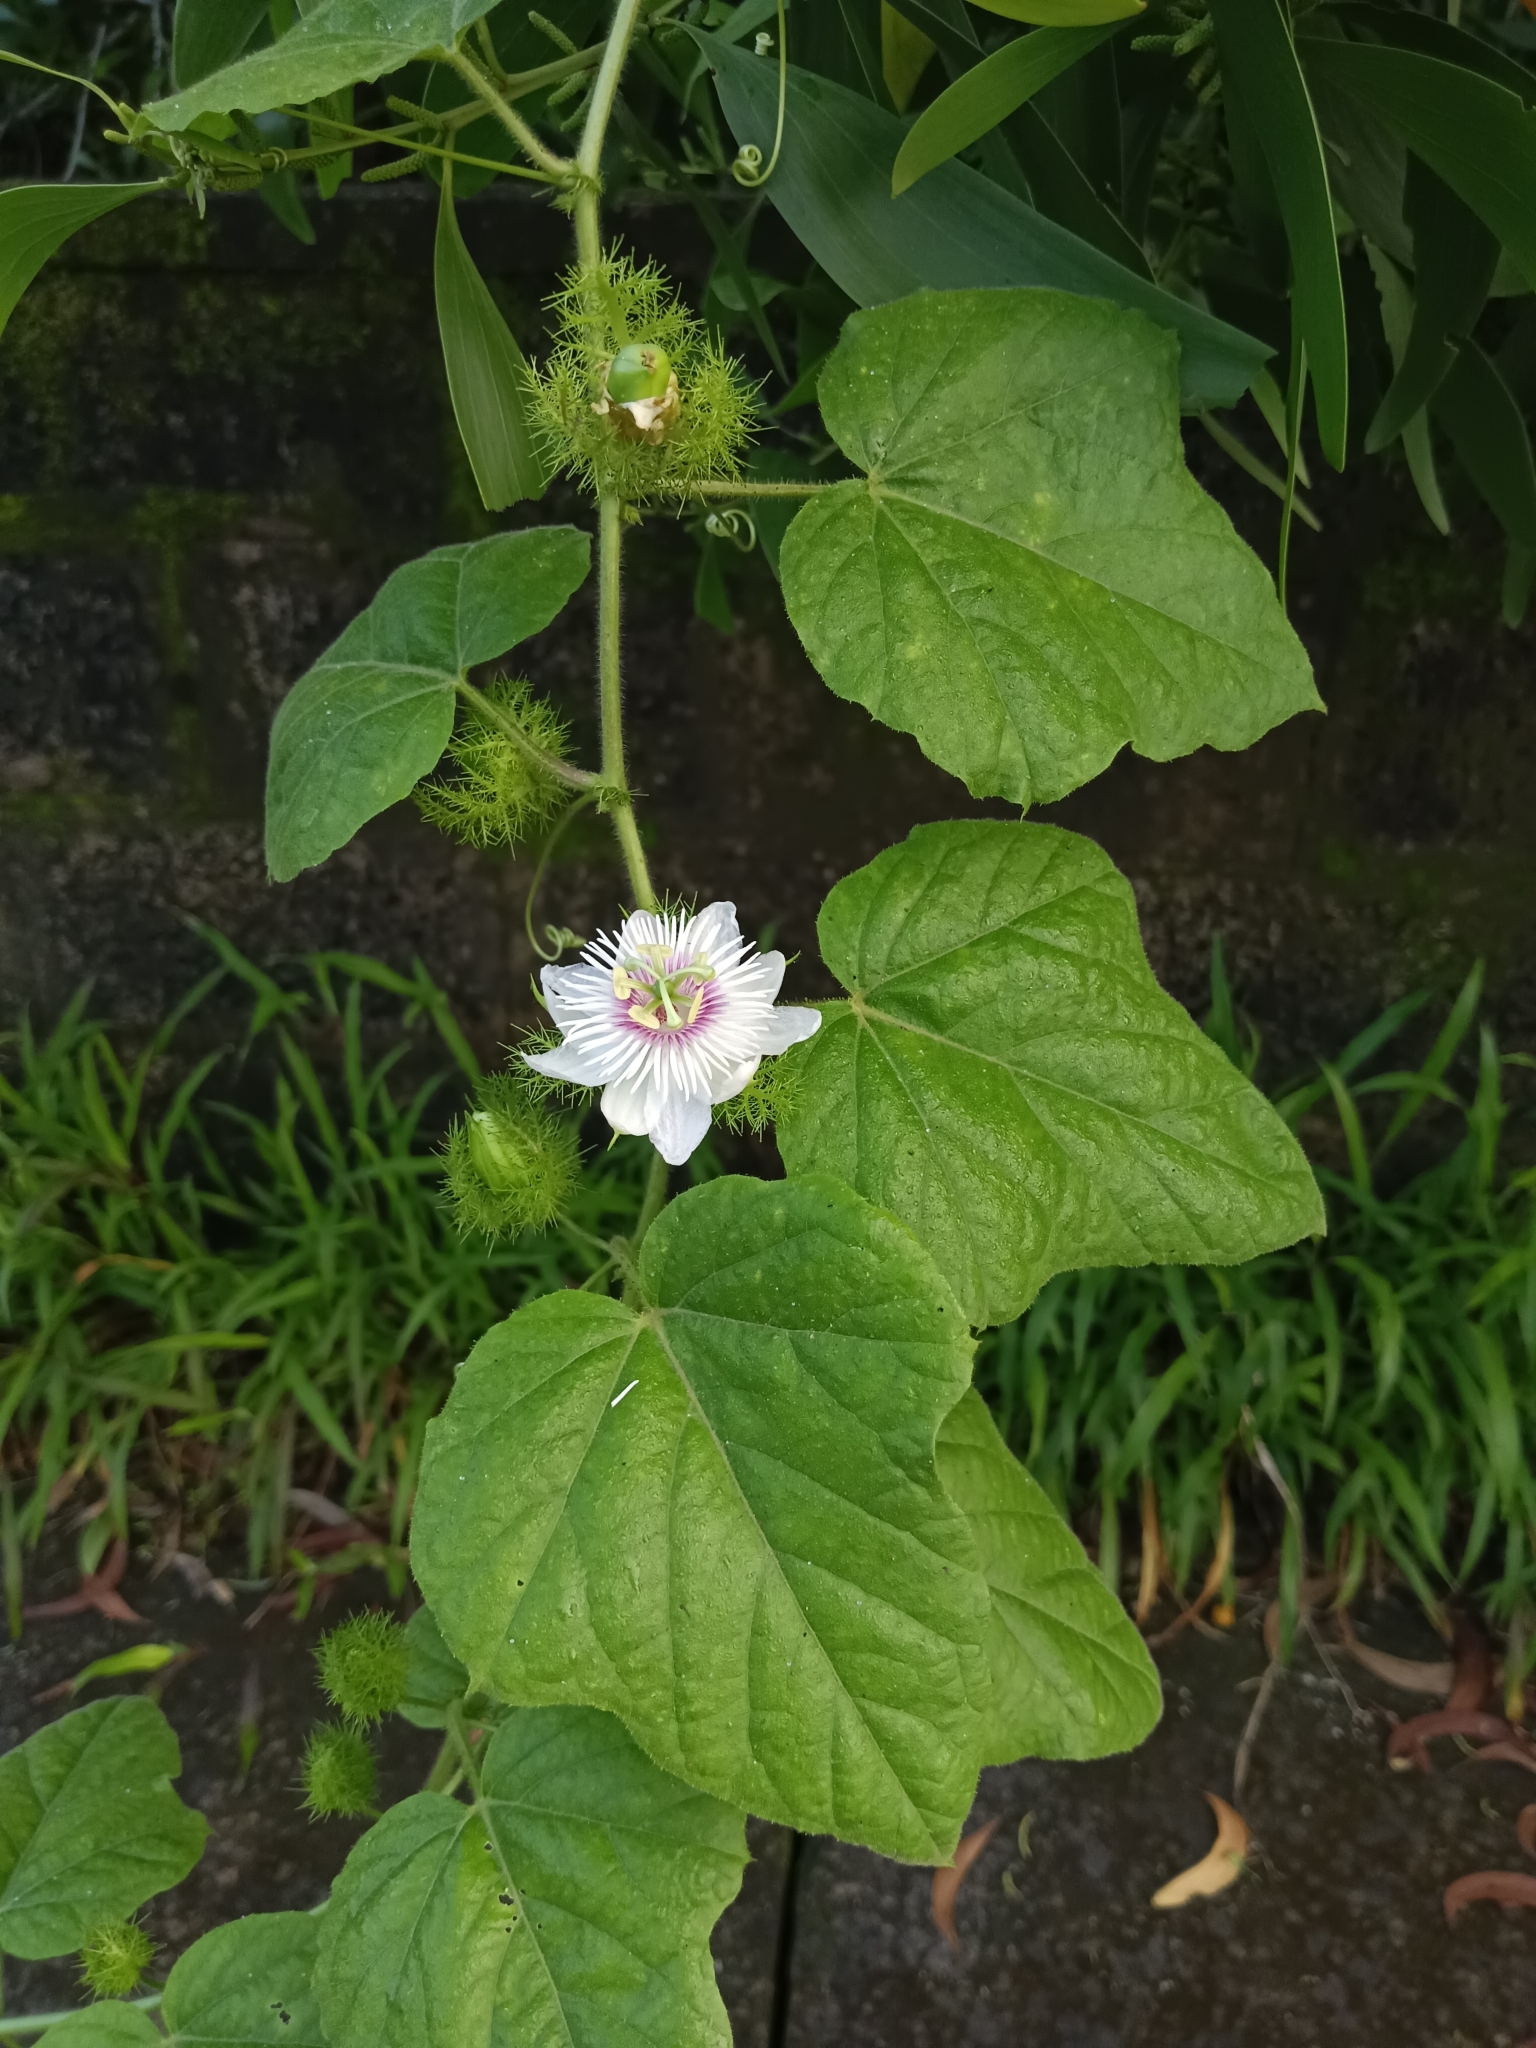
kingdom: Plantae
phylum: Tracheophyta
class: Magnoliopsida
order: Malpighiales
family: Passifloraceae
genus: Passiflora
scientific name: Passiflora vesicaria
